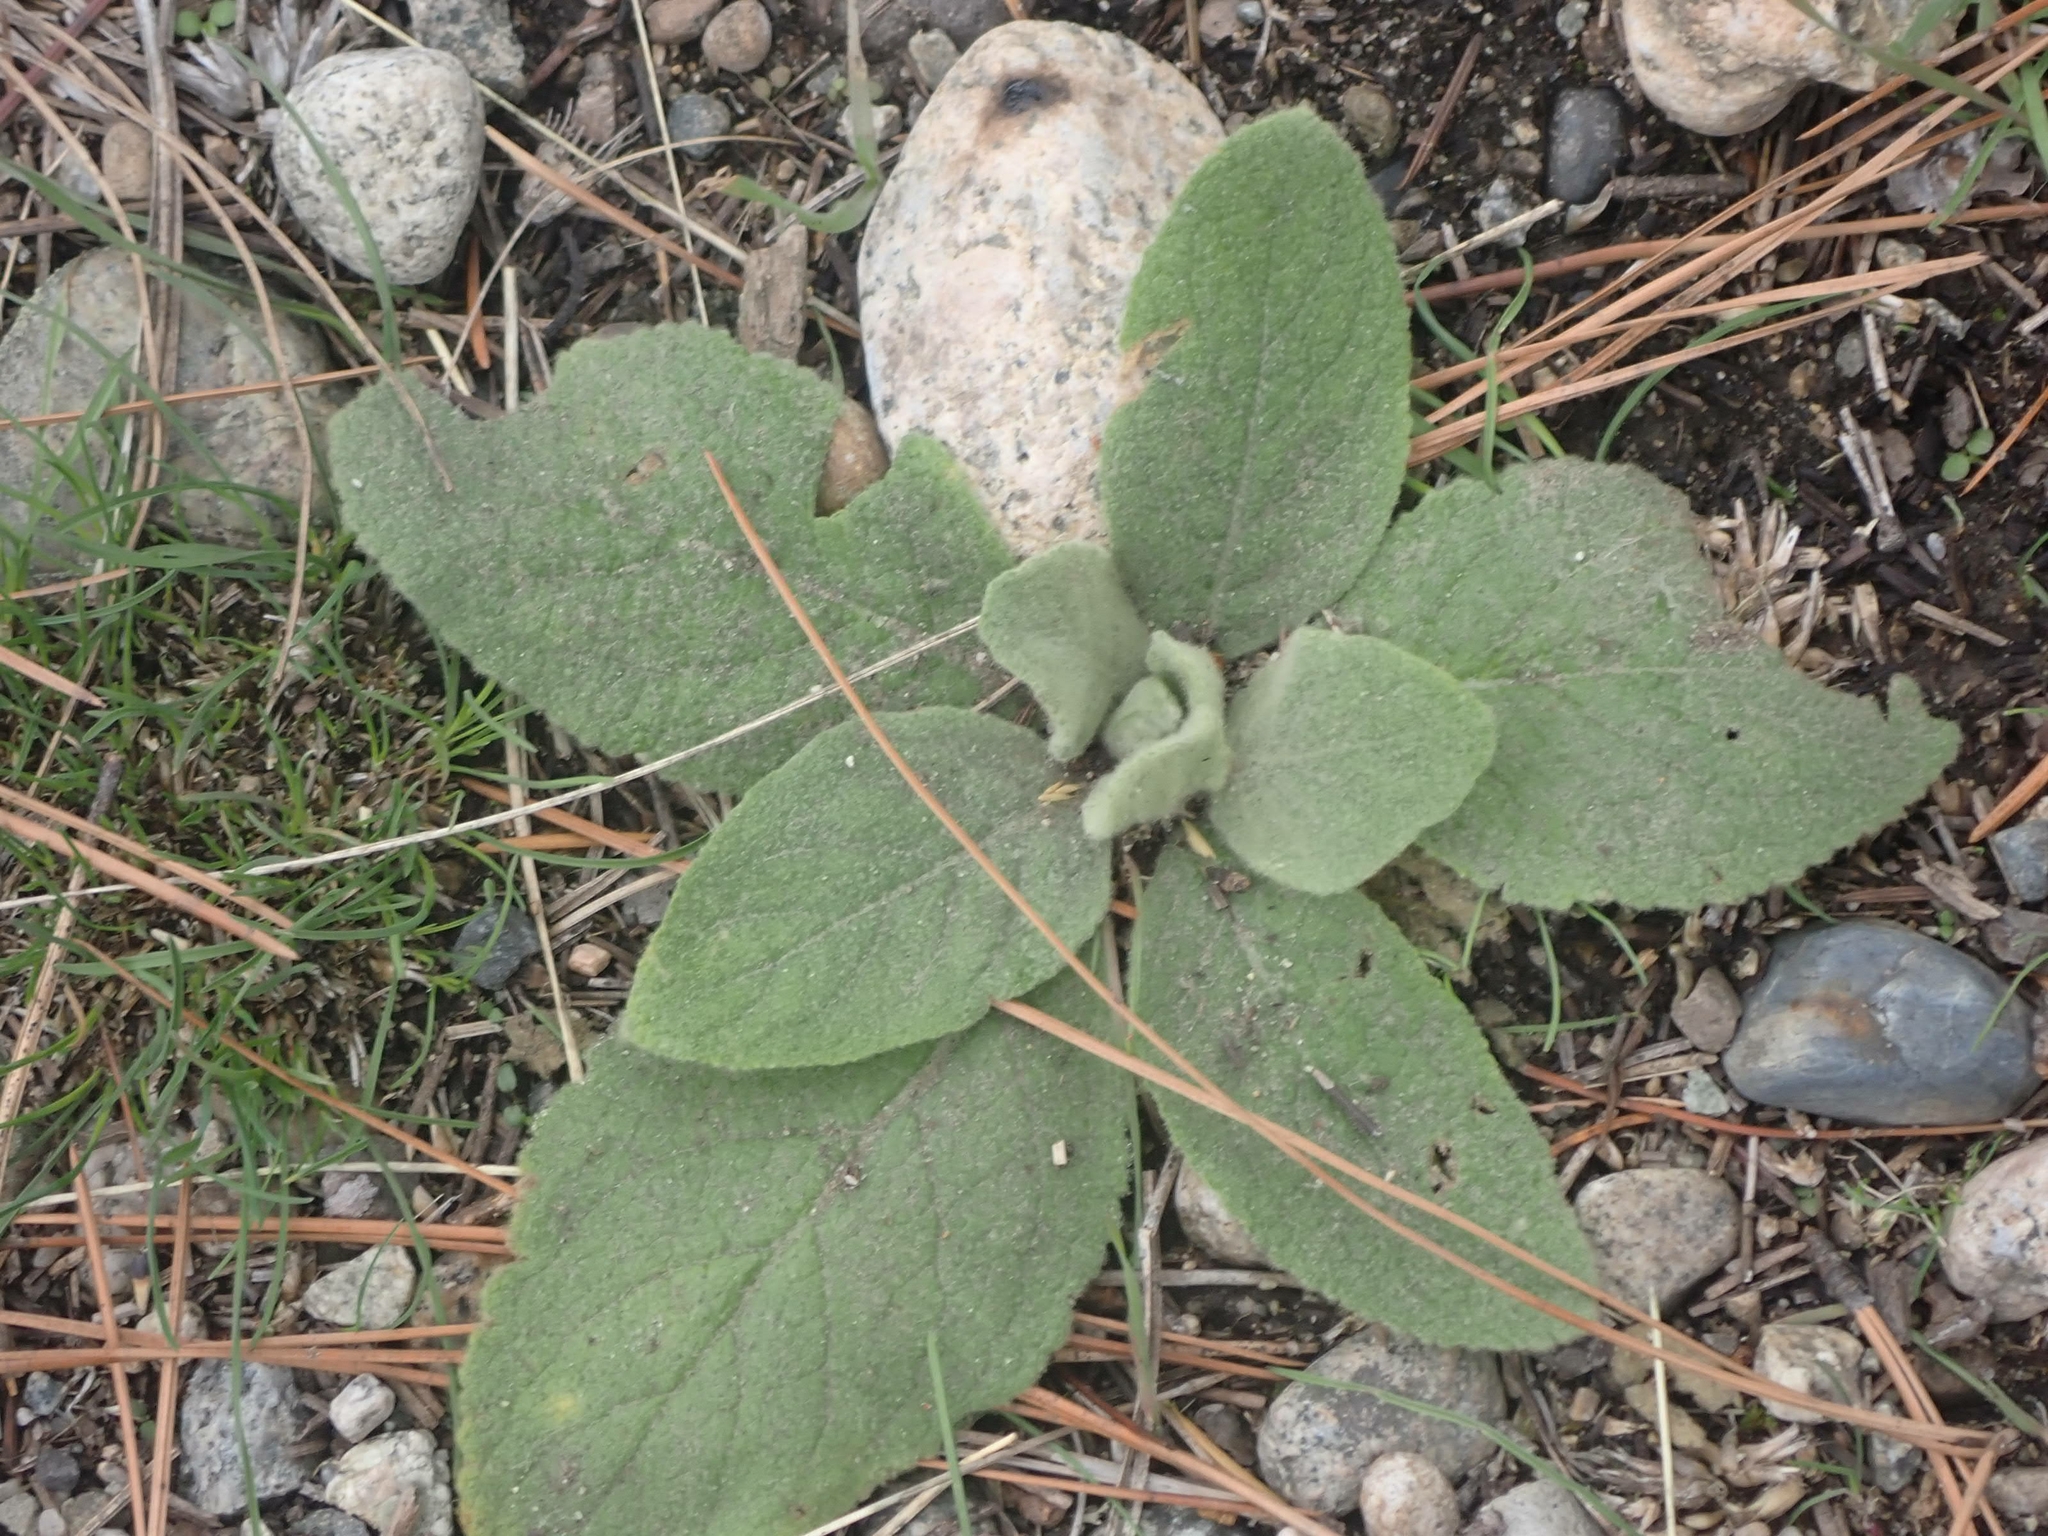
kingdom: Plantae
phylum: Tracheophyta
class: Magnoliopsida
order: Lamiales
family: Scrophulariaceae
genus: Verbascum
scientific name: Verbascum thapsus
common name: Common mullein
